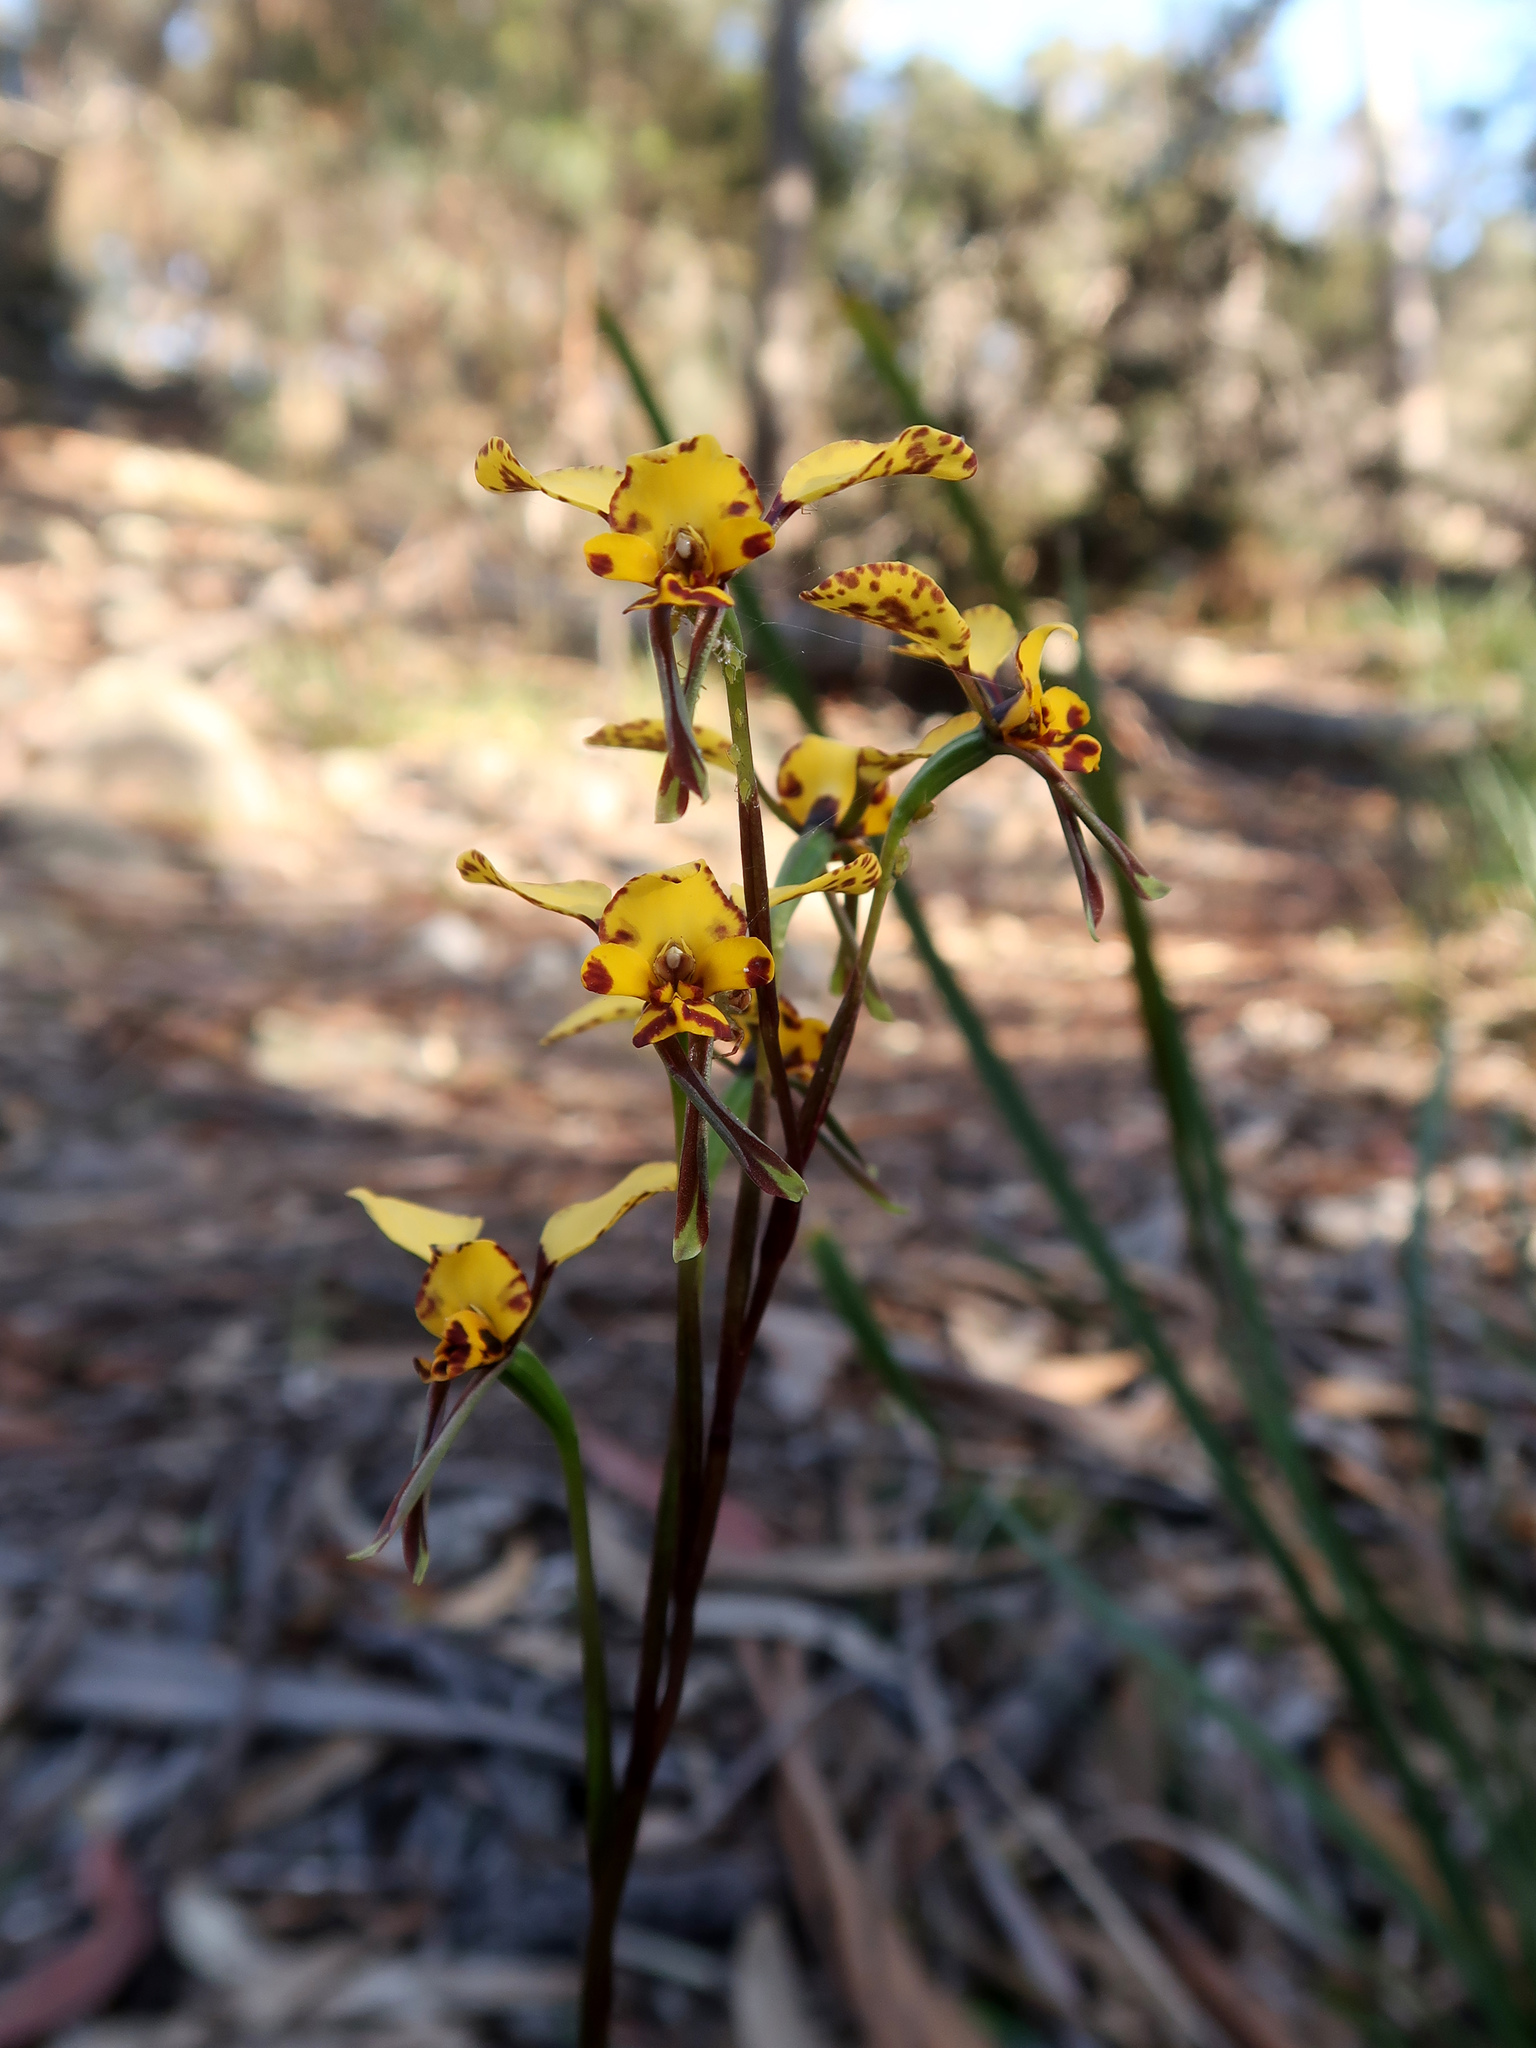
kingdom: Plantae
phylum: Tracheophyta
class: Liliopsida
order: Asparagales
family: Orchidaceae
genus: Diuris
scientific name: Diuris pardina
